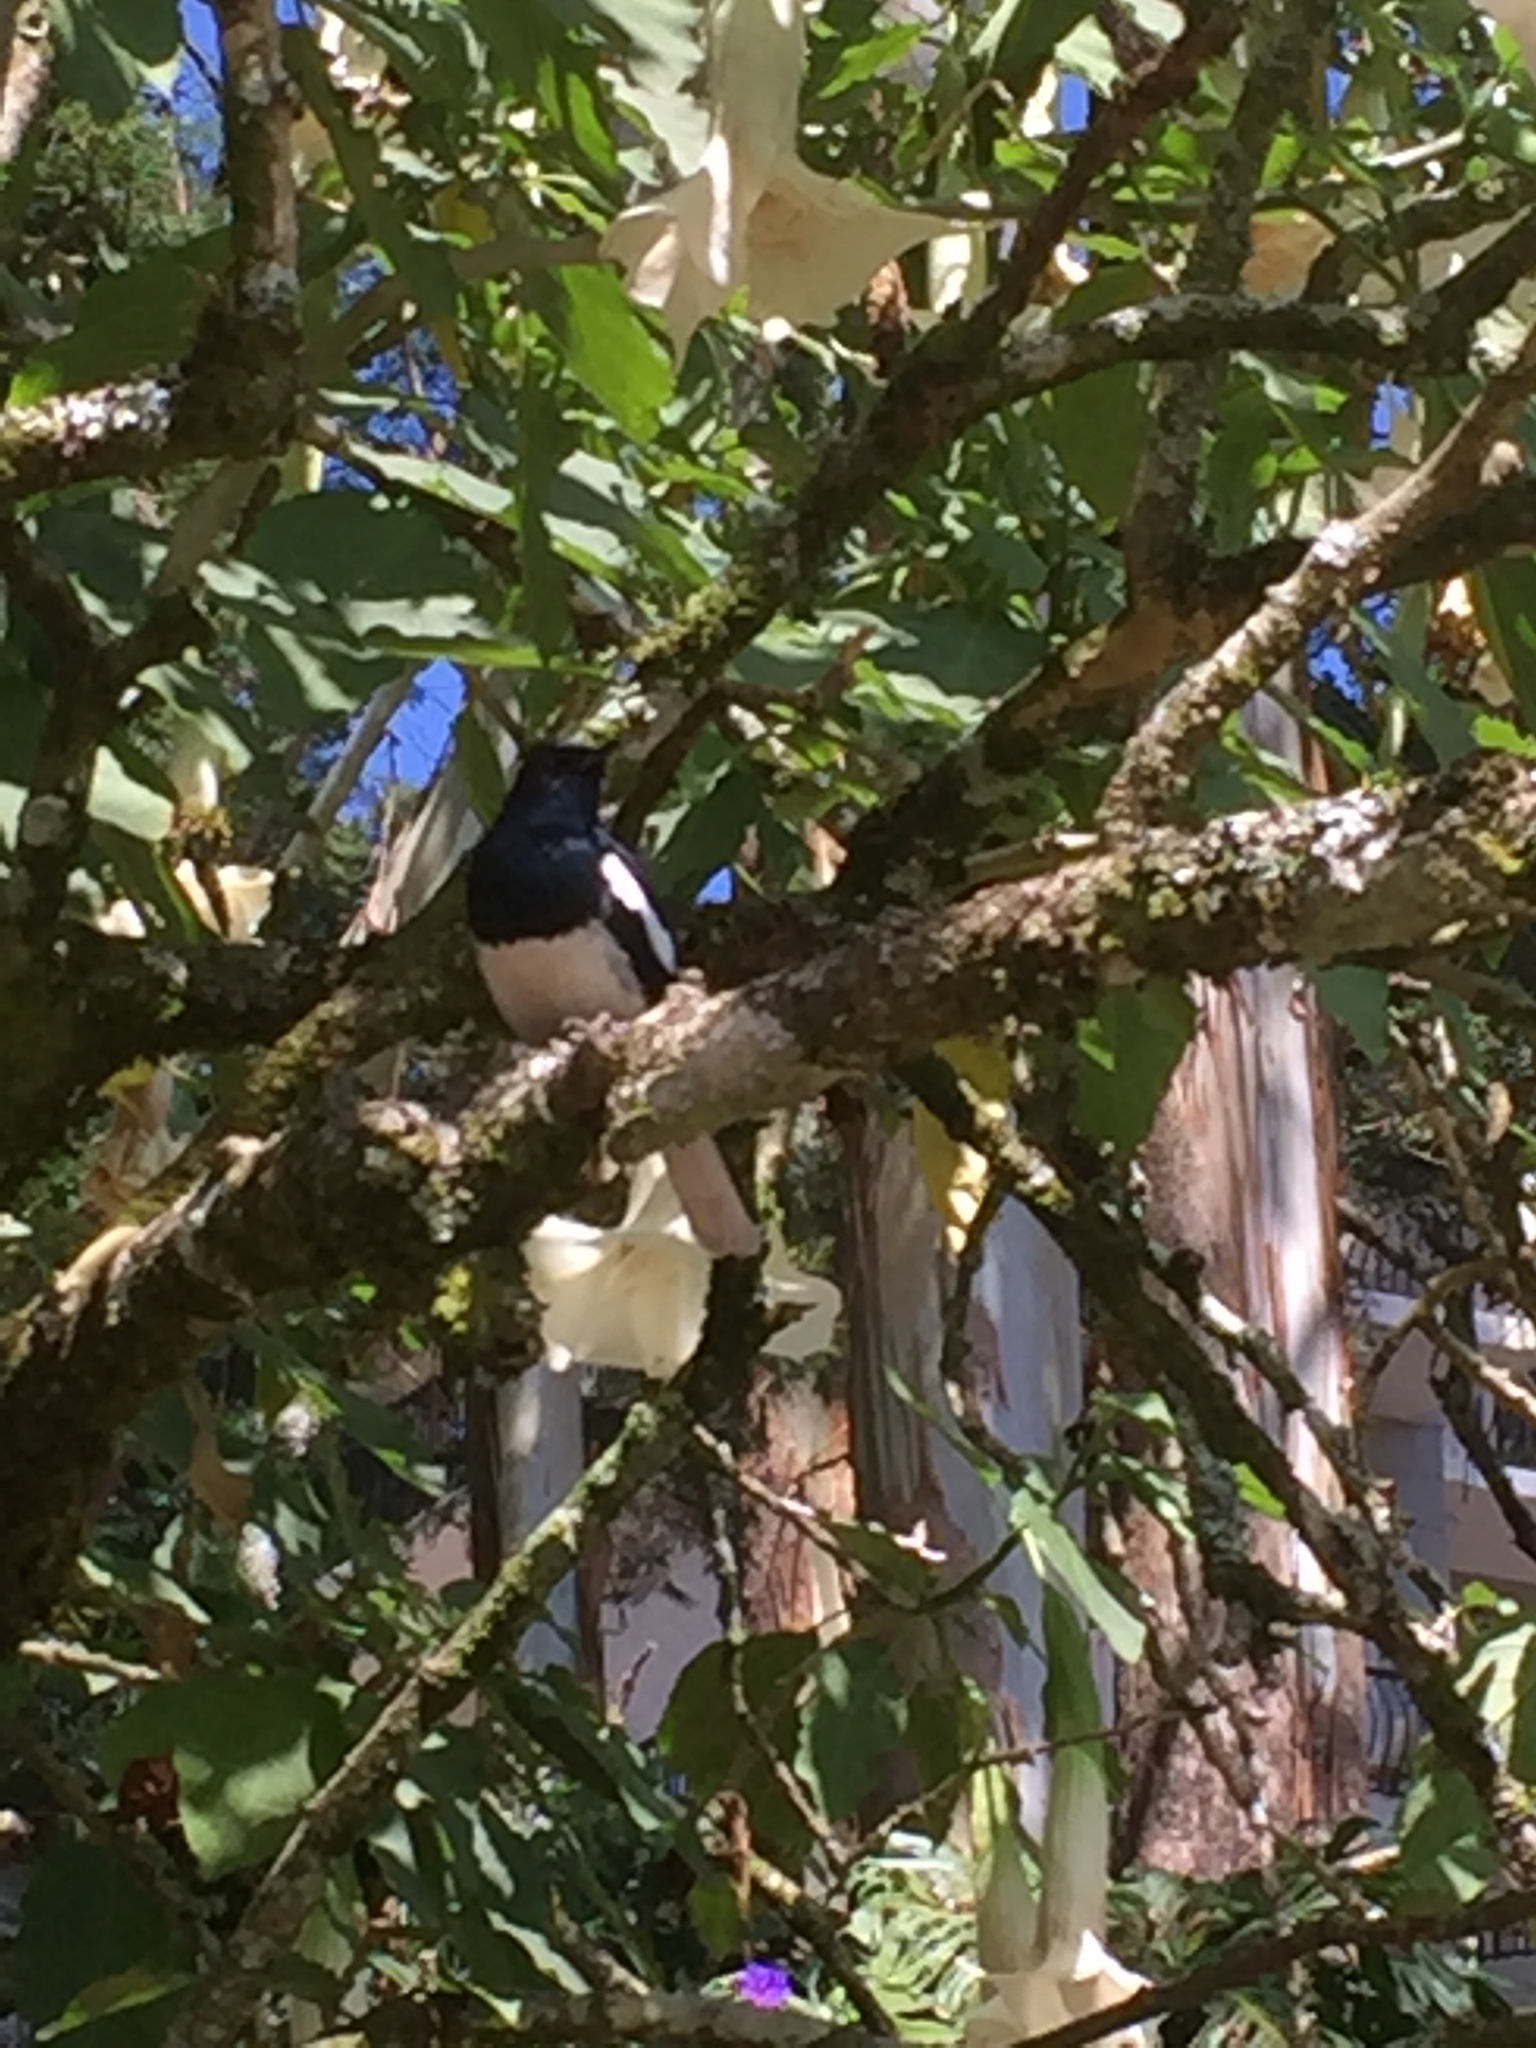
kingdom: Animalia
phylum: Chordata
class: Aves
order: Passeriformes
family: Muscicapidae
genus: Copsychus
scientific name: Copsychus saularis
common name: Oriental magpie-robin
